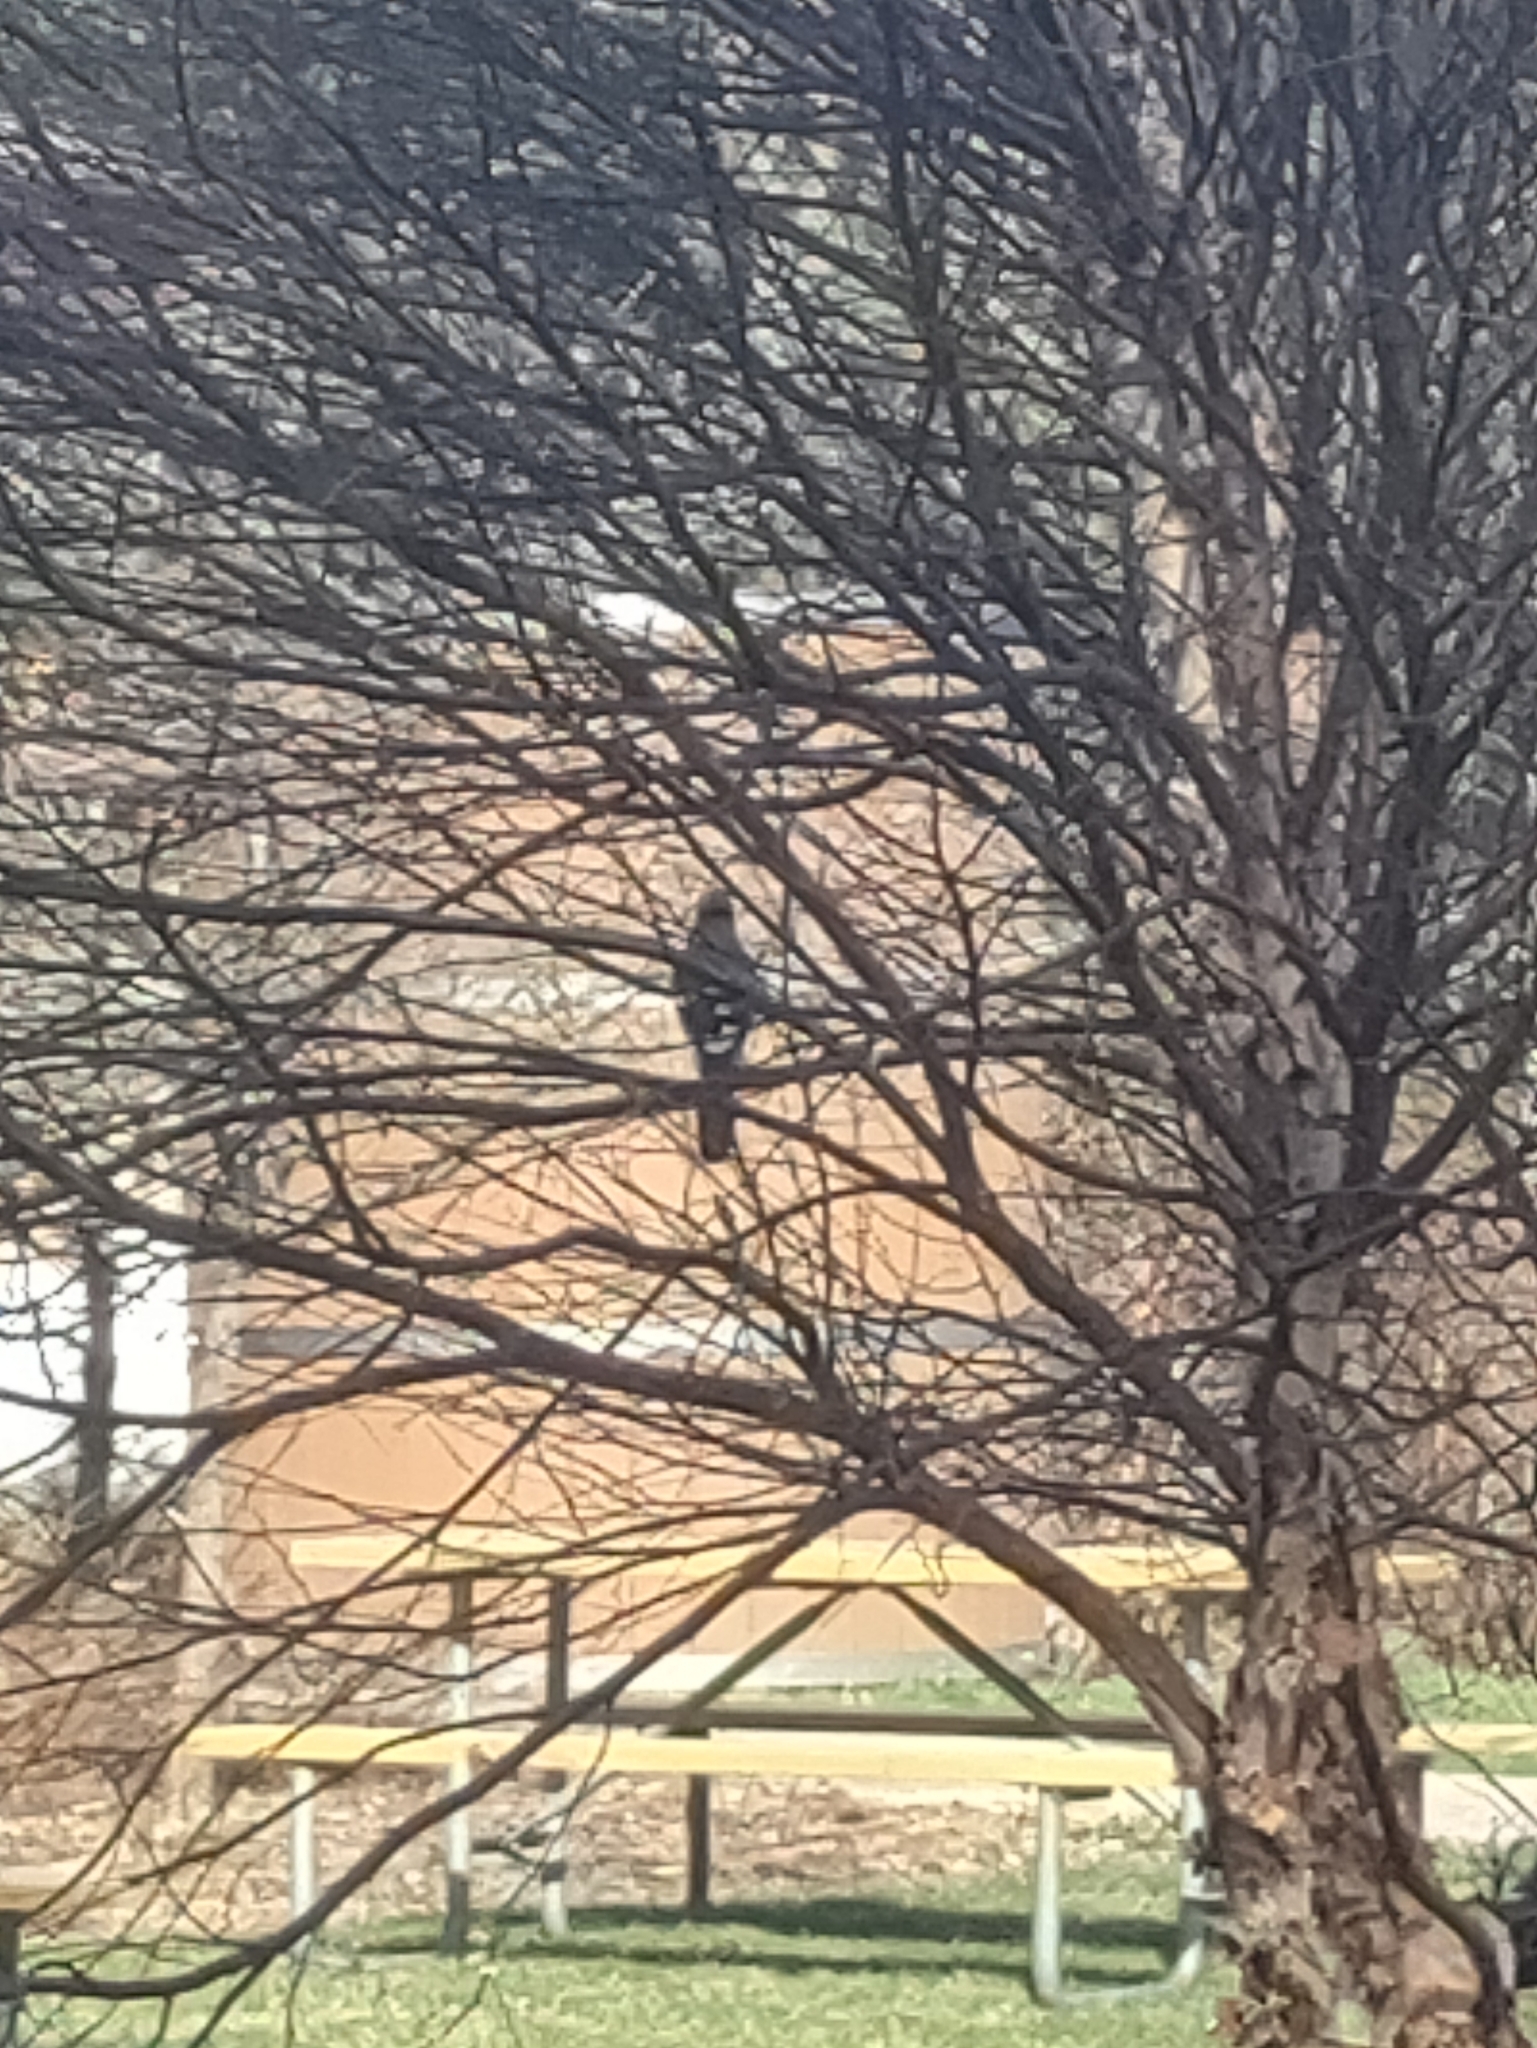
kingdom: Animalia
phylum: Chordata
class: Aves
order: Passeriformes
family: Corvidae
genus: Cyanocitta
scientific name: Cyanocitta cristata
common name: Blue jay
